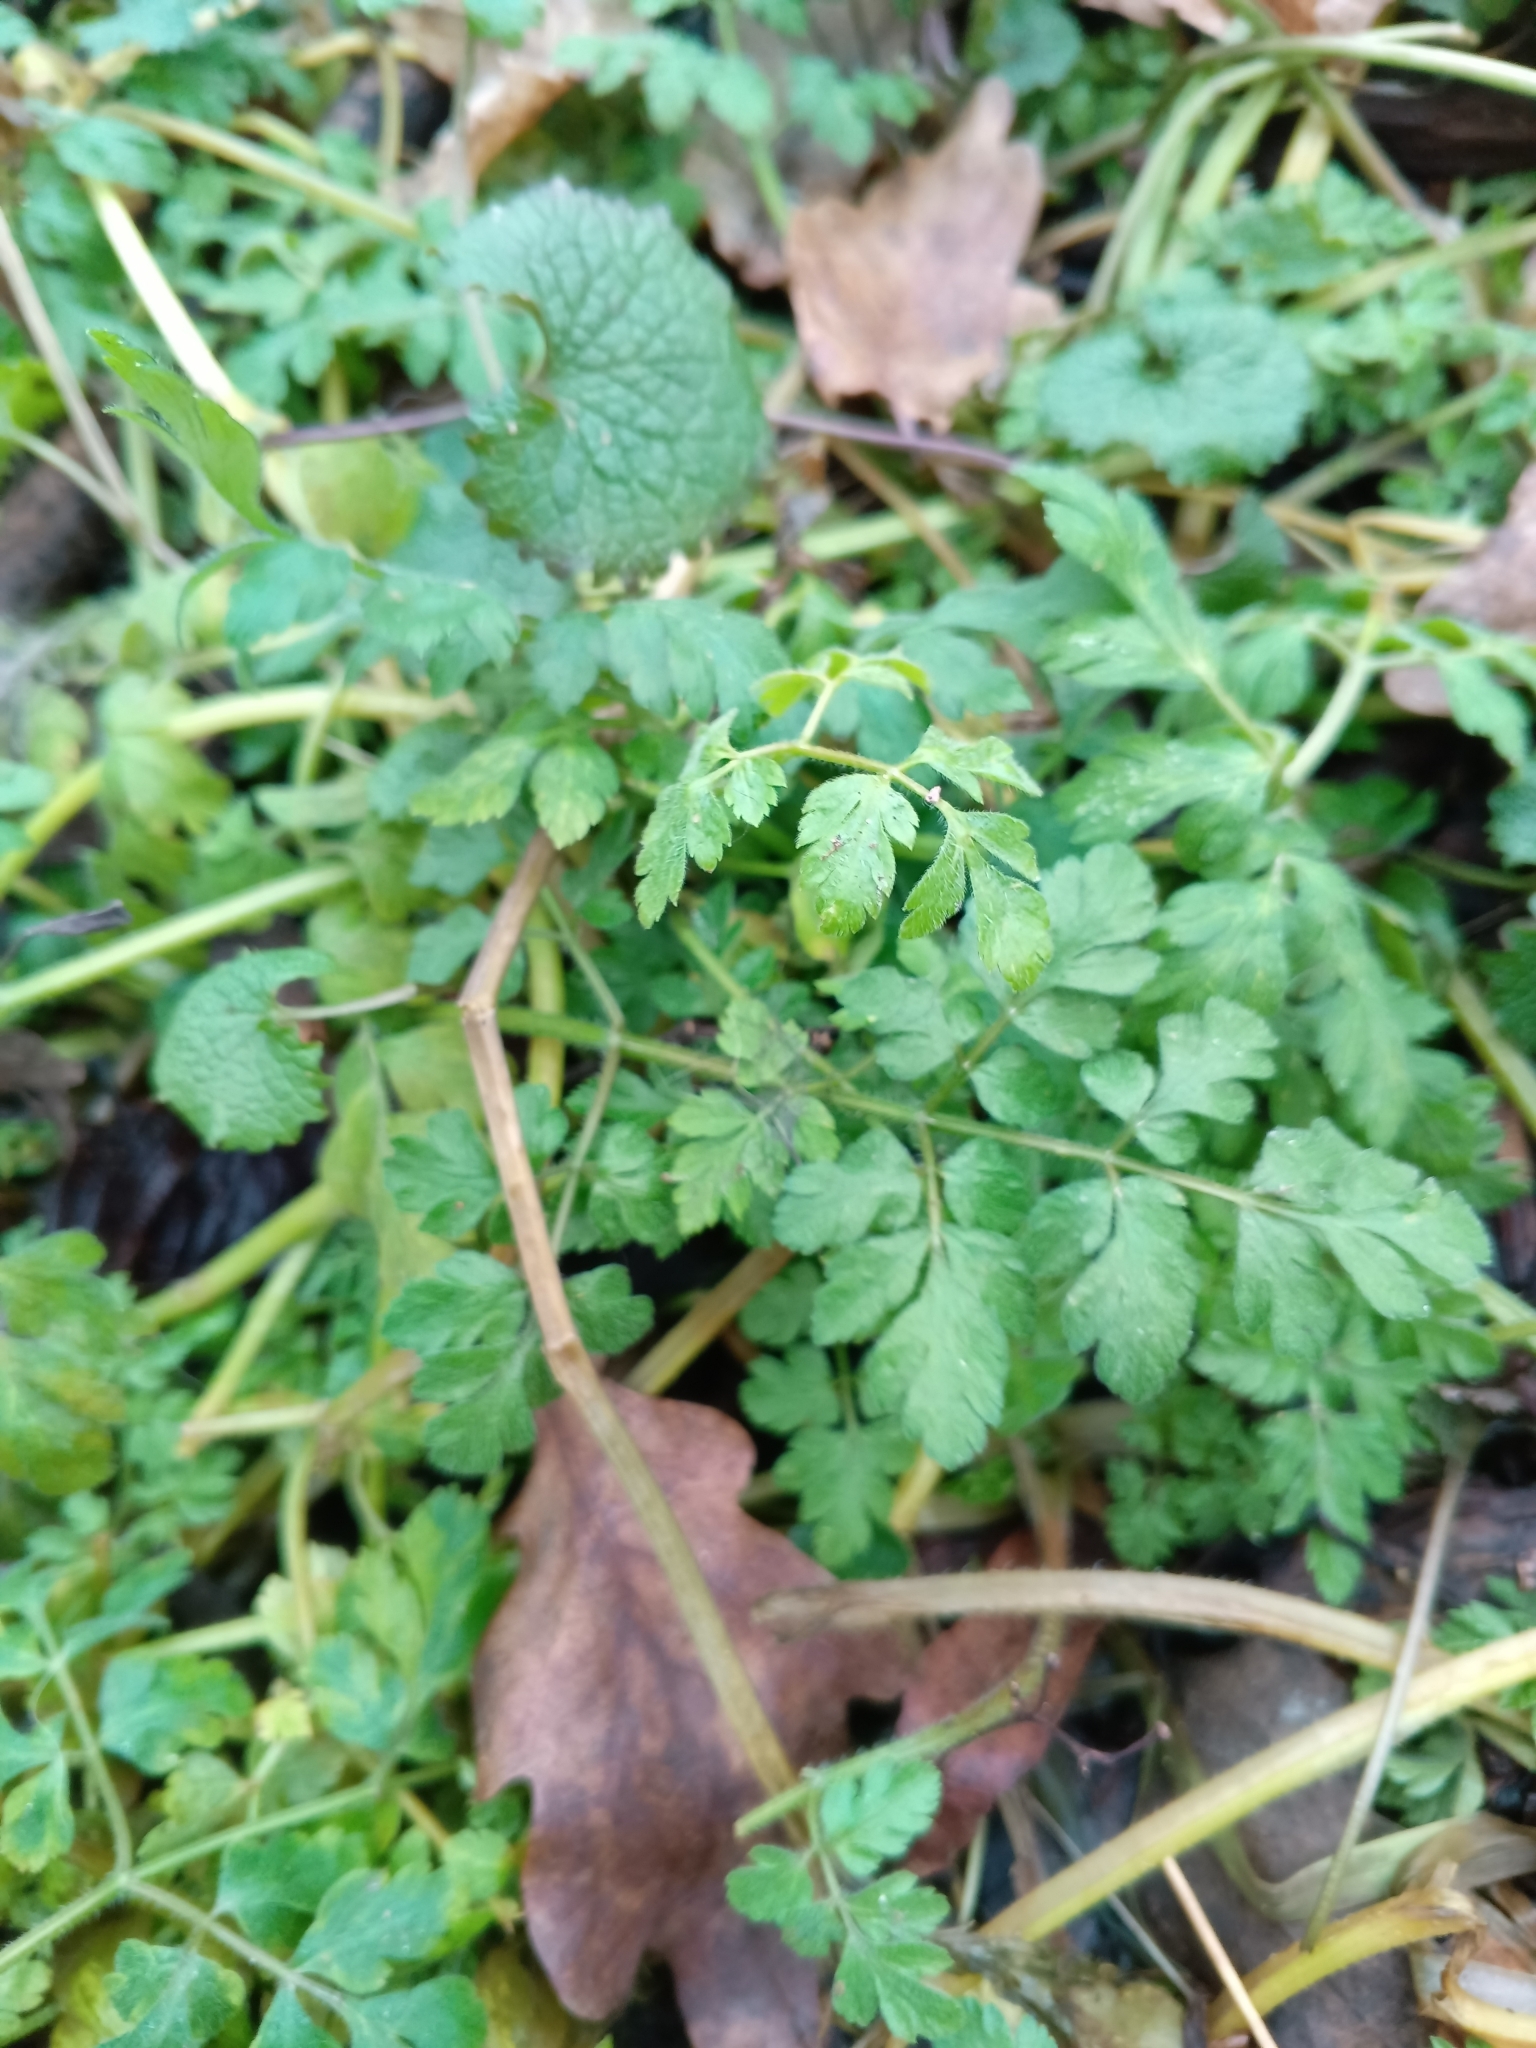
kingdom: Plantae
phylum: Tracheophyta
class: Magnoliopsida
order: Apiales
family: Apiaceae
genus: Chaerophyllum
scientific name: Chaerophyllum temulum
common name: Rough chervil
